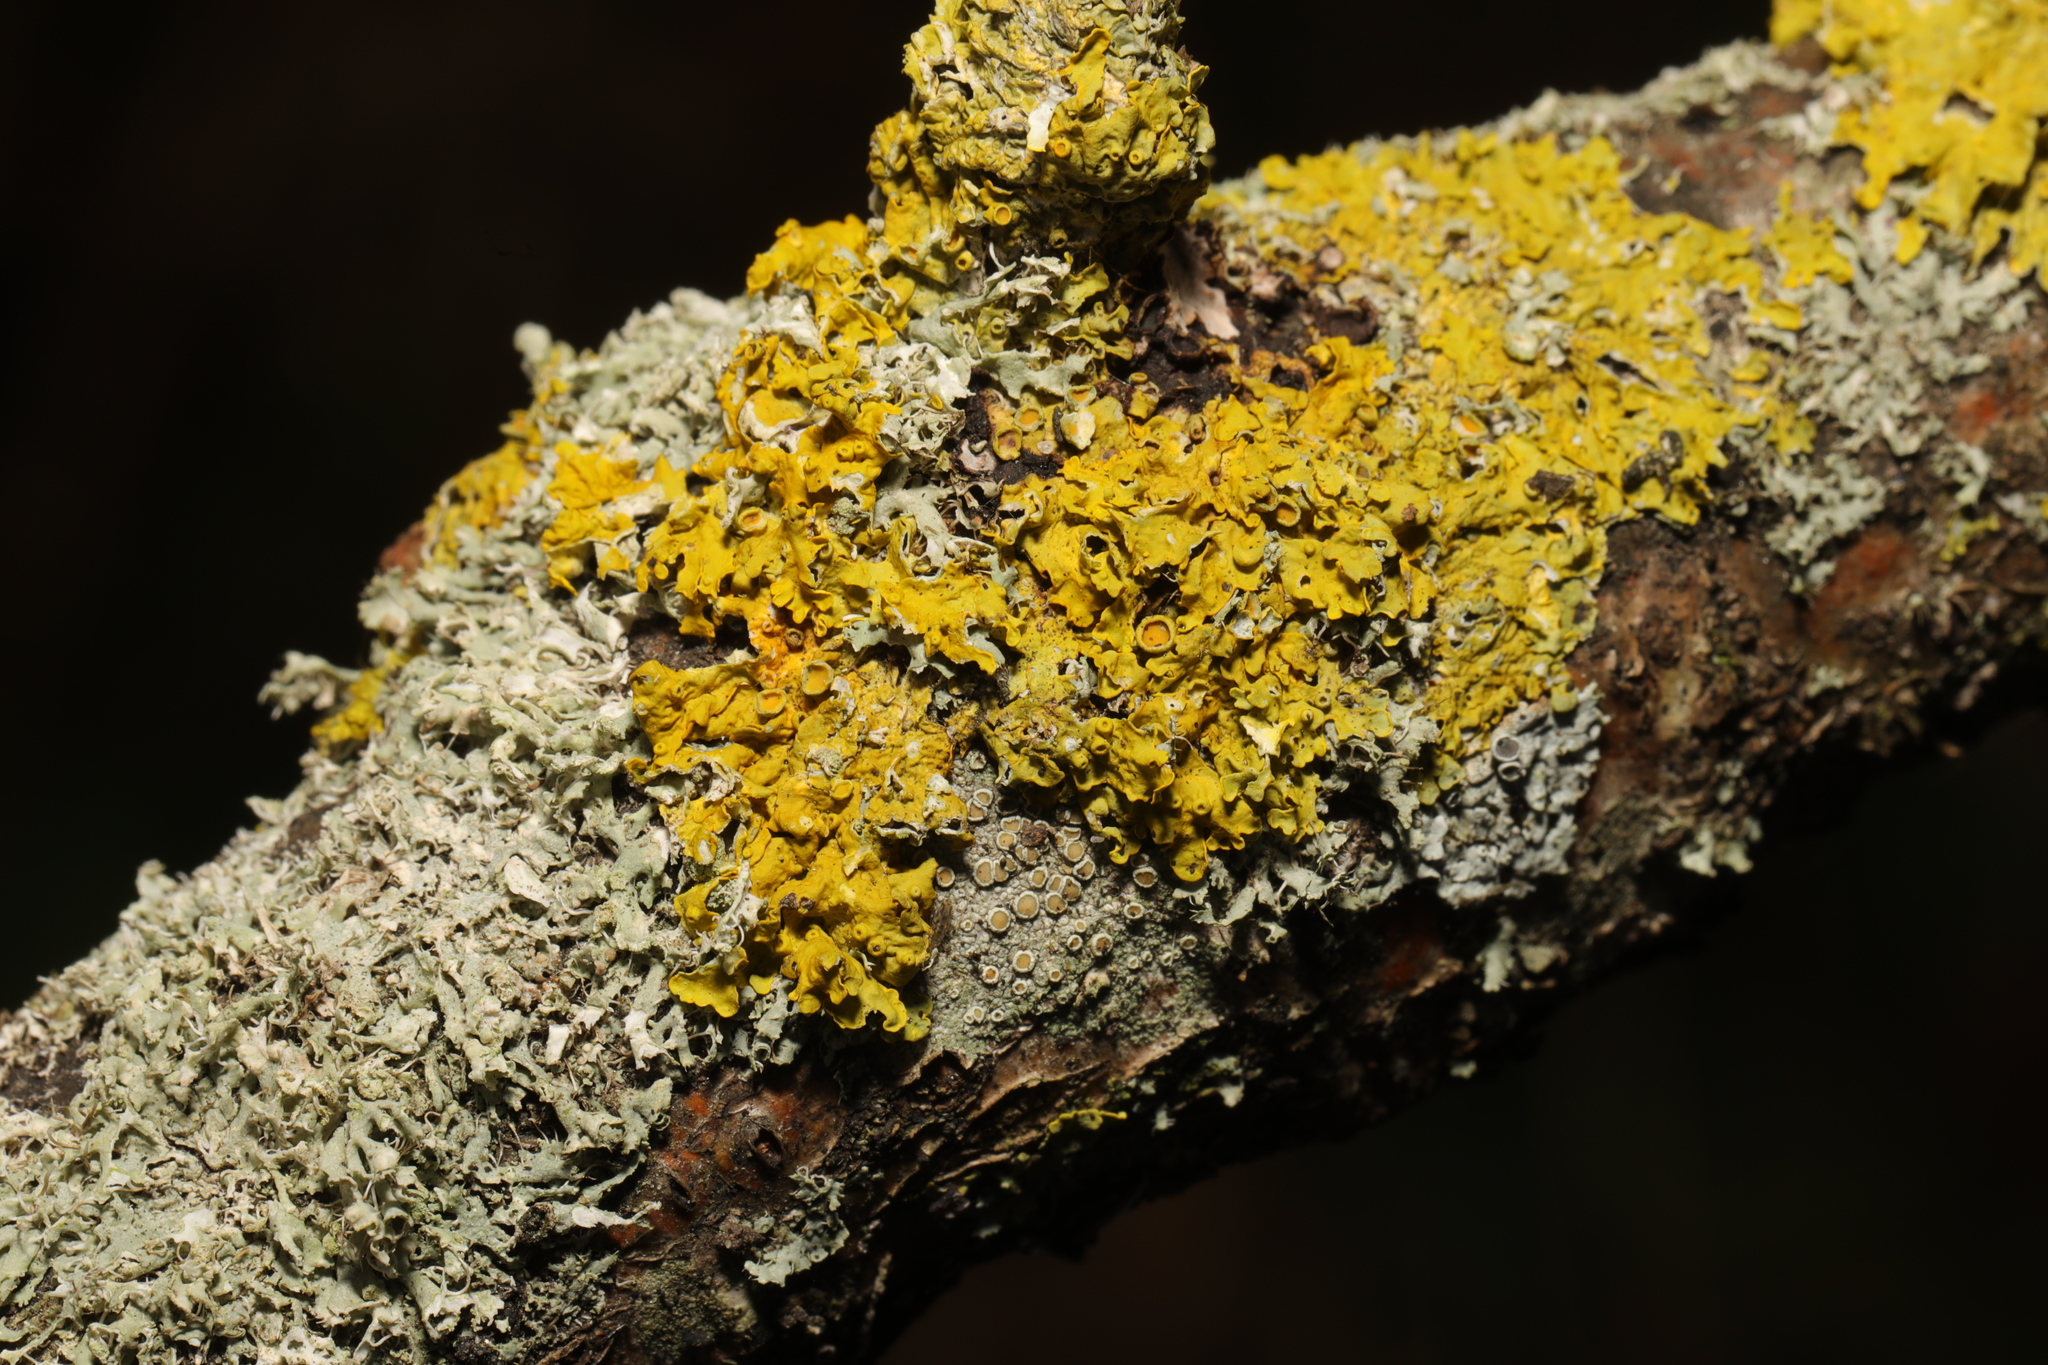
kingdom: Fungi
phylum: Ascomycota
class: Lecanoromycetes
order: Teloschistales
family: Teloschistaceae
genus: Xanthoria
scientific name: Xanthoria parietina
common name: Common orange lichen
